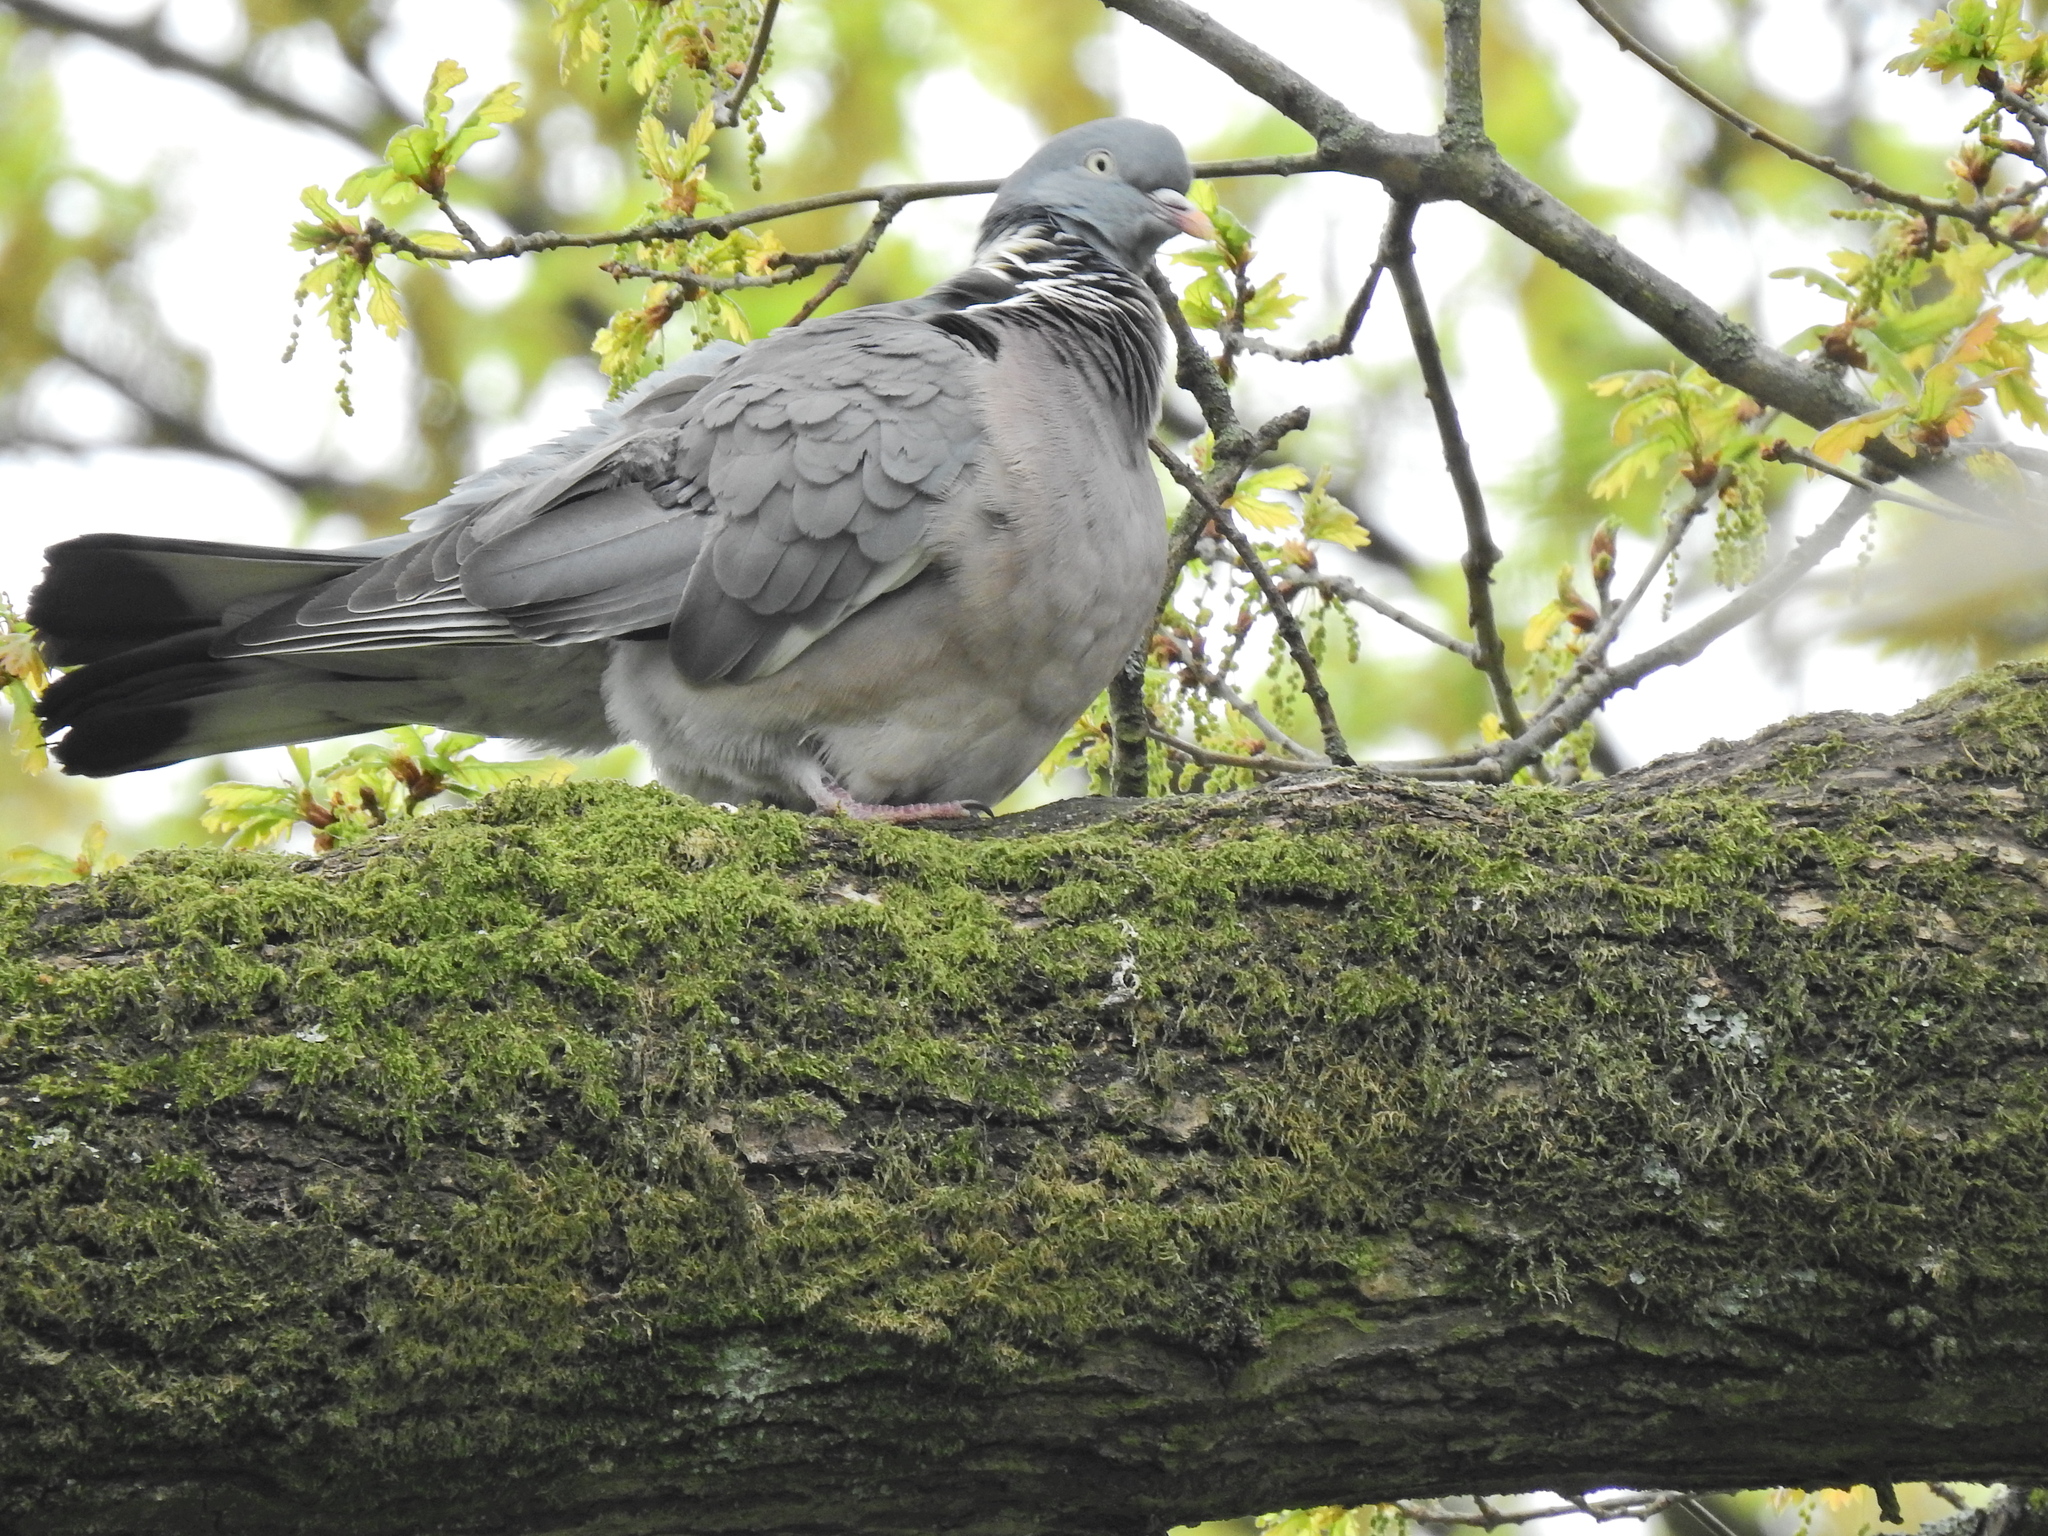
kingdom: Animalia
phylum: Chordata
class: Aves
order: Columbiformes
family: Columbidae
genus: Columba
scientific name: Columba palumbus
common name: Common wood pigeon
